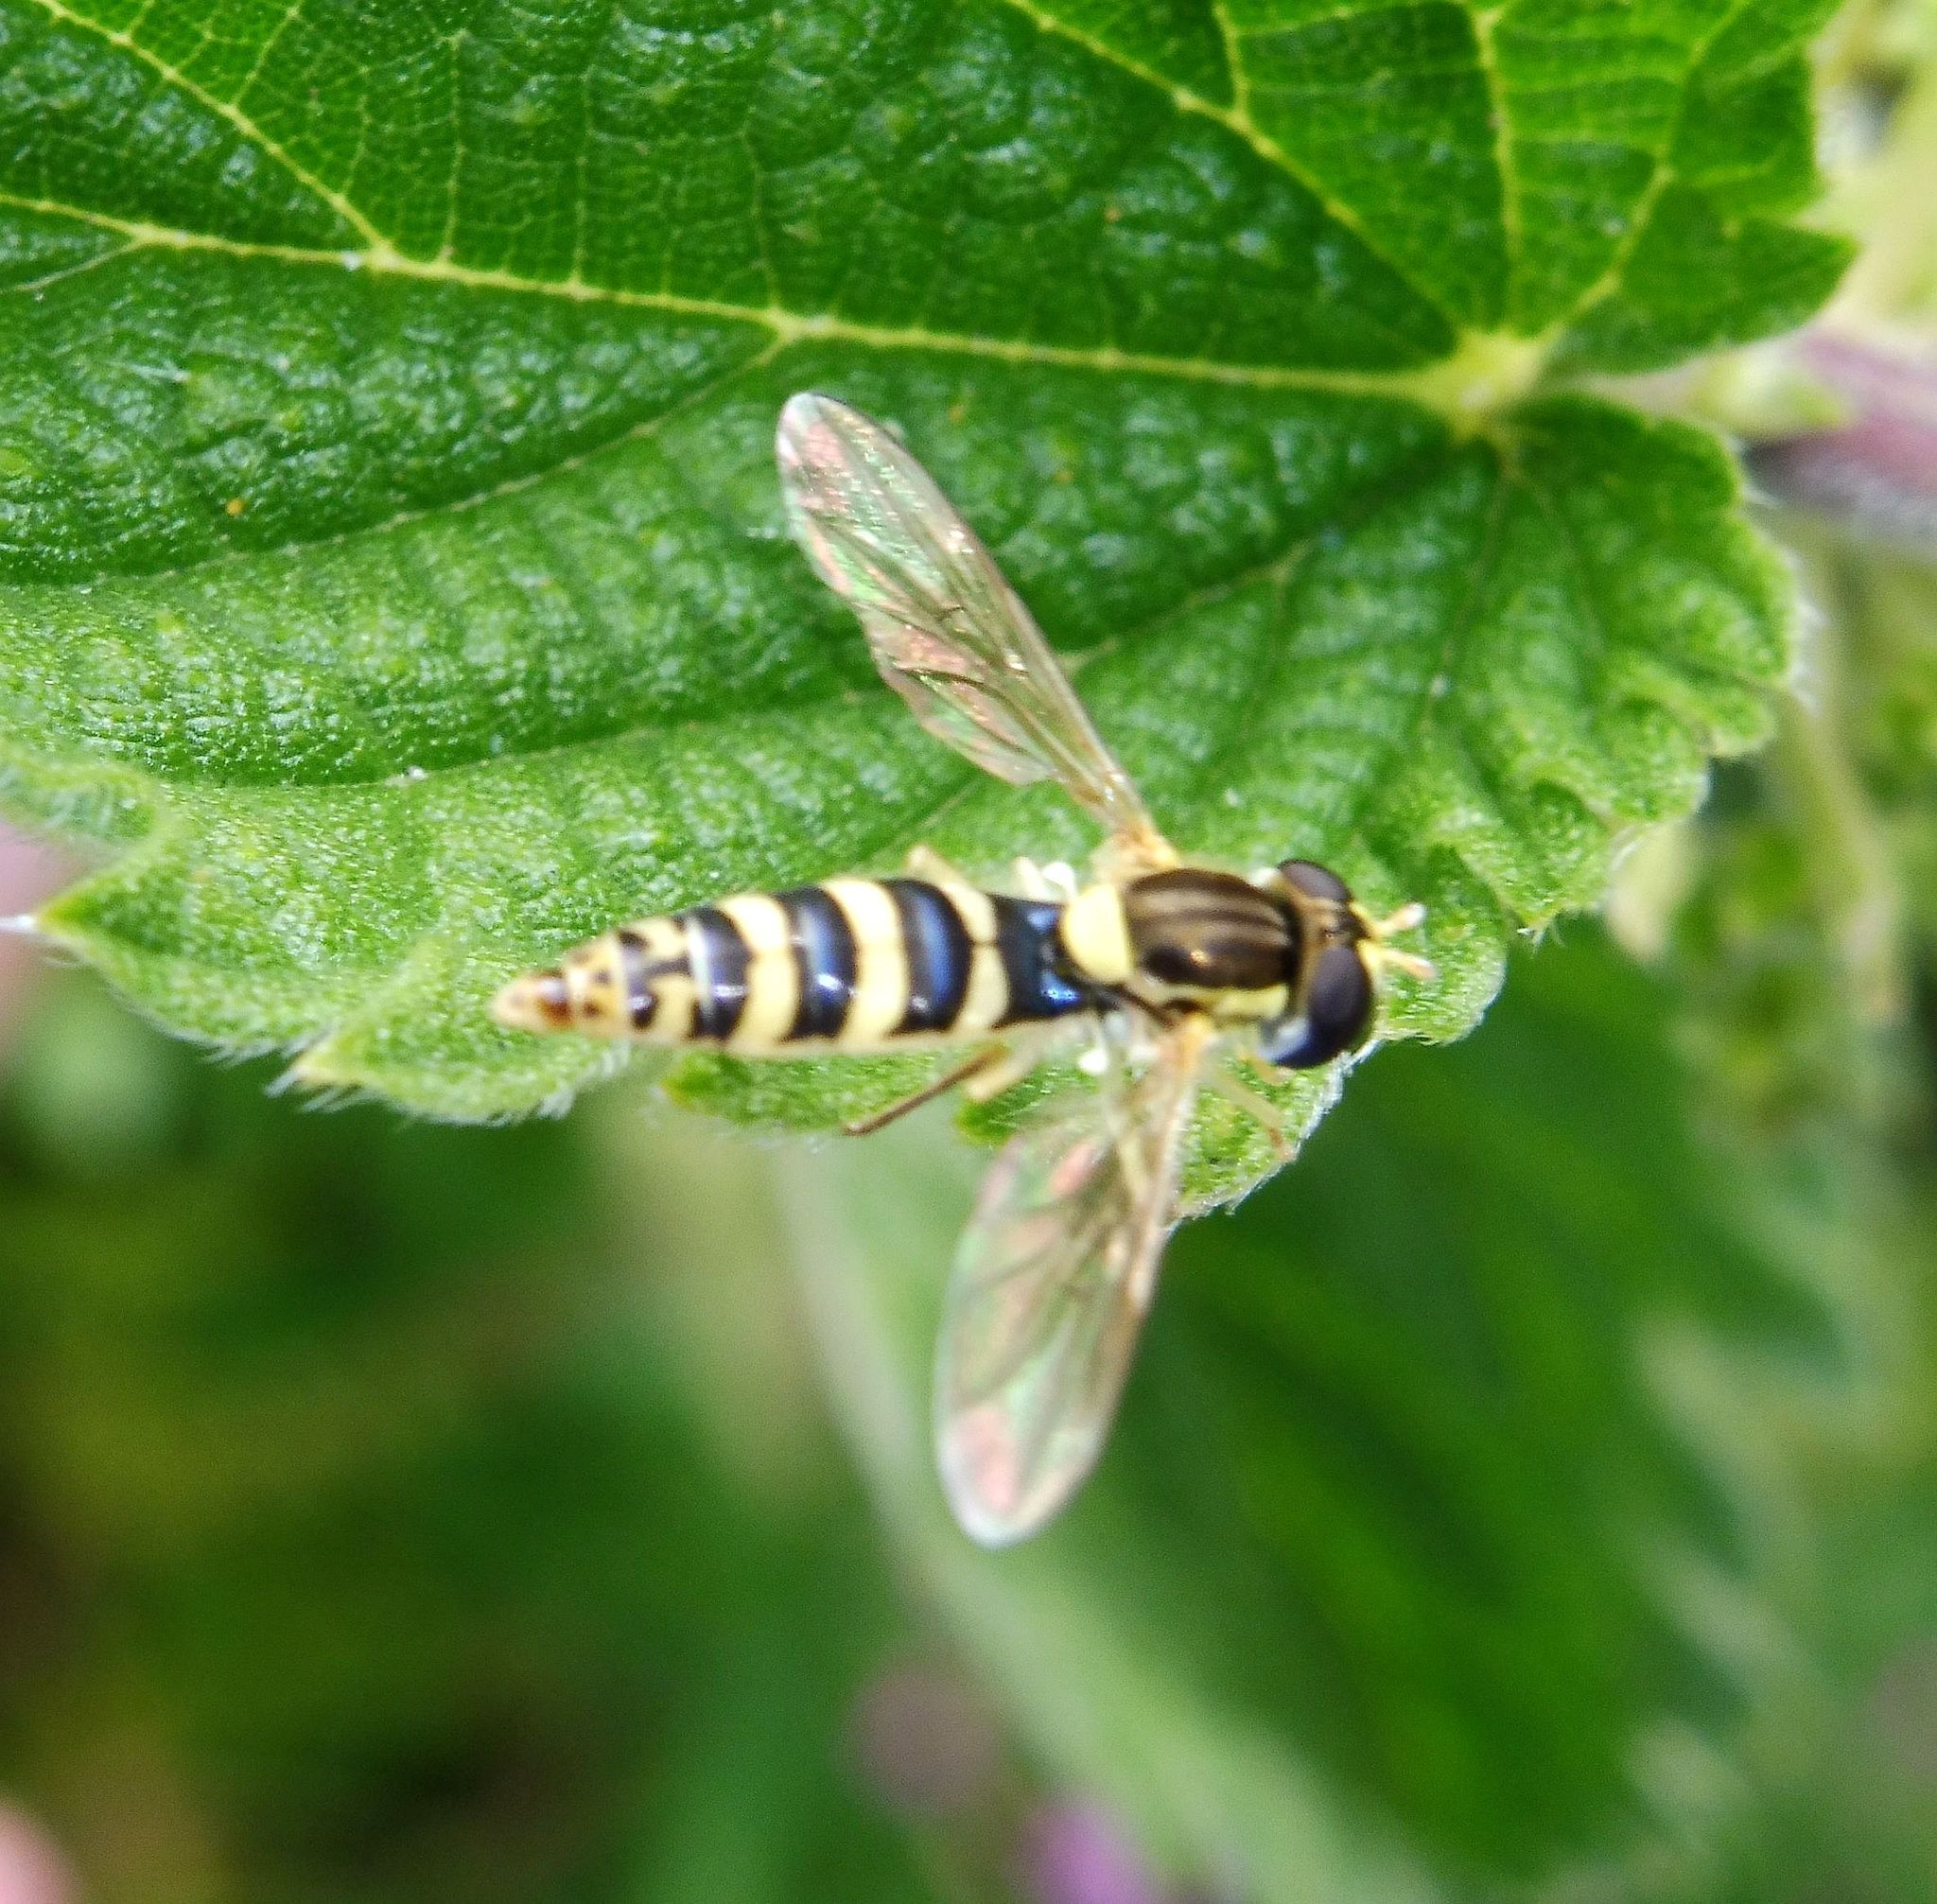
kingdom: Animalia
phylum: Arthropoda
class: Insecta
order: Diptera
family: Syrphidae
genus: Sphaerophoria
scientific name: Sphaerophoria
